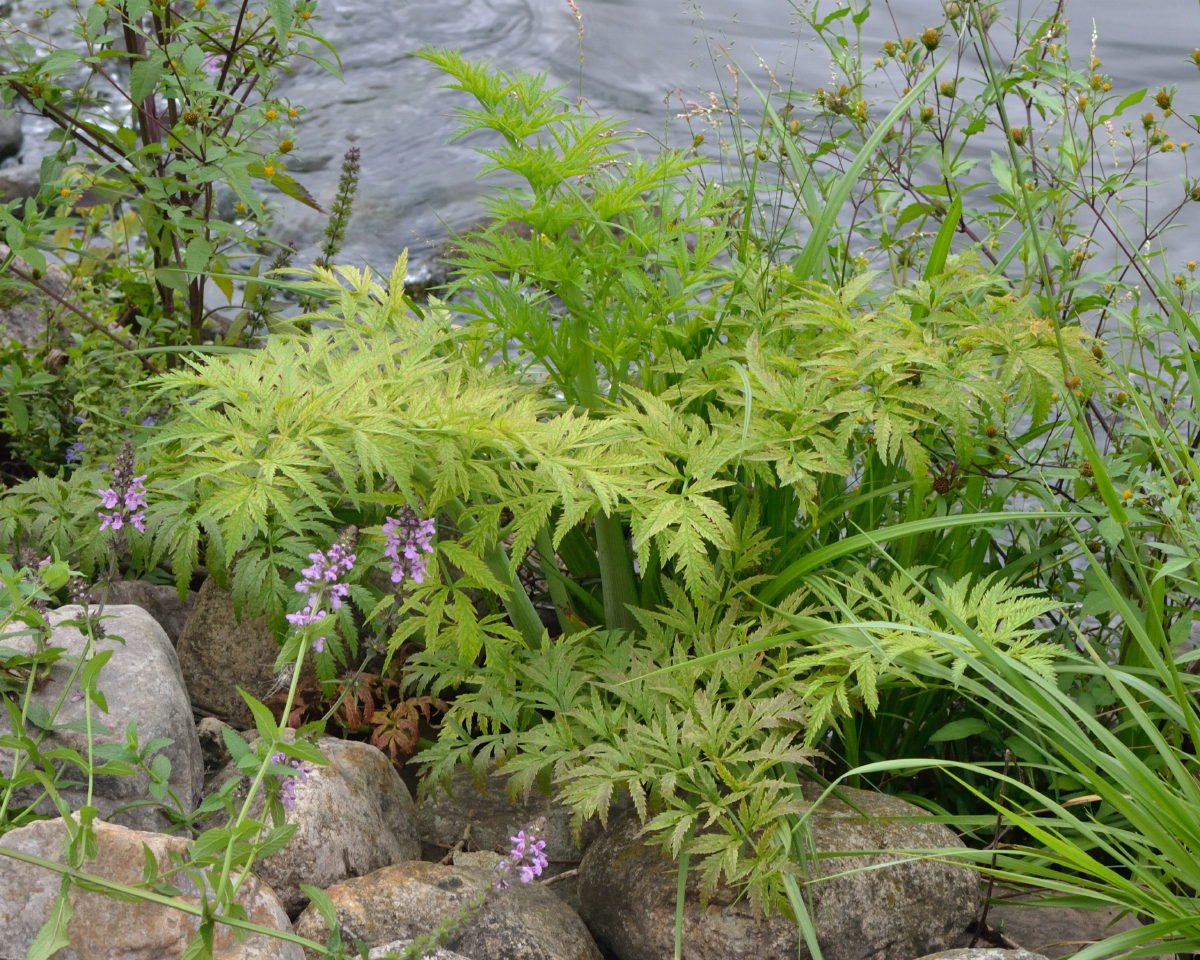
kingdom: Plantae
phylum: Tracheophyta
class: Magnoliopsida
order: Apiales
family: Apiaceae
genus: Cicuta
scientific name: Cicuta virosa
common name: Cowbane
